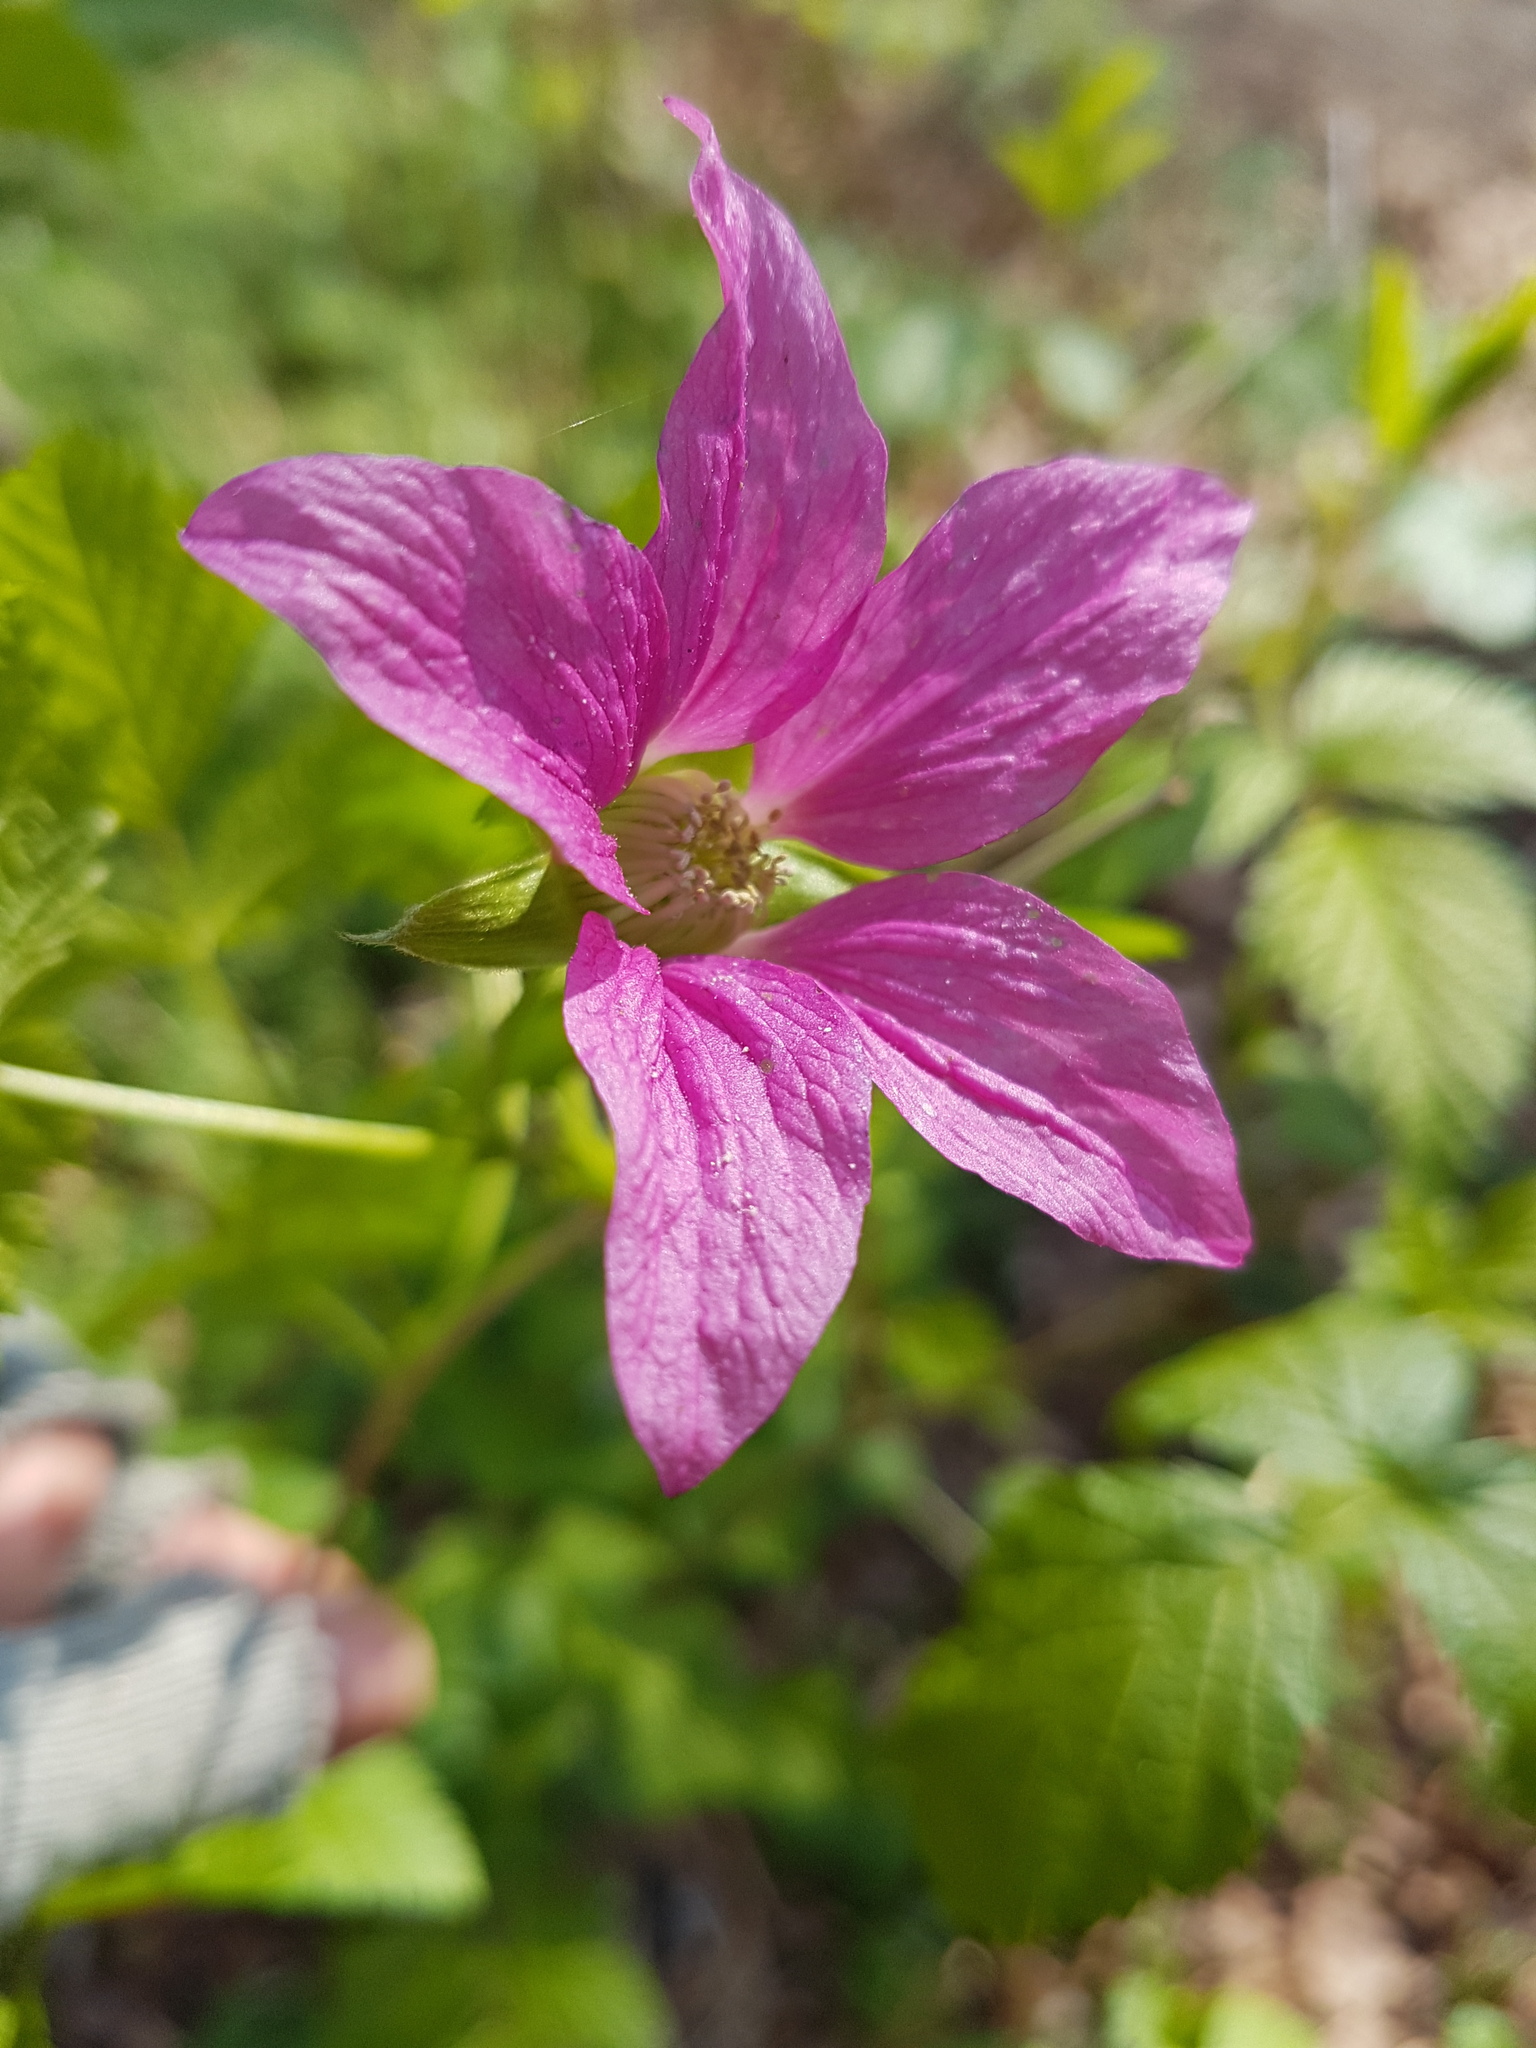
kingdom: Plantae
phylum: Tracheophyta
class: Magnoliopsida
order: Rosales
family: Rosaceae
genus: Rubus
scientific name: Rubus spectabilis
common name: Salmonberry
